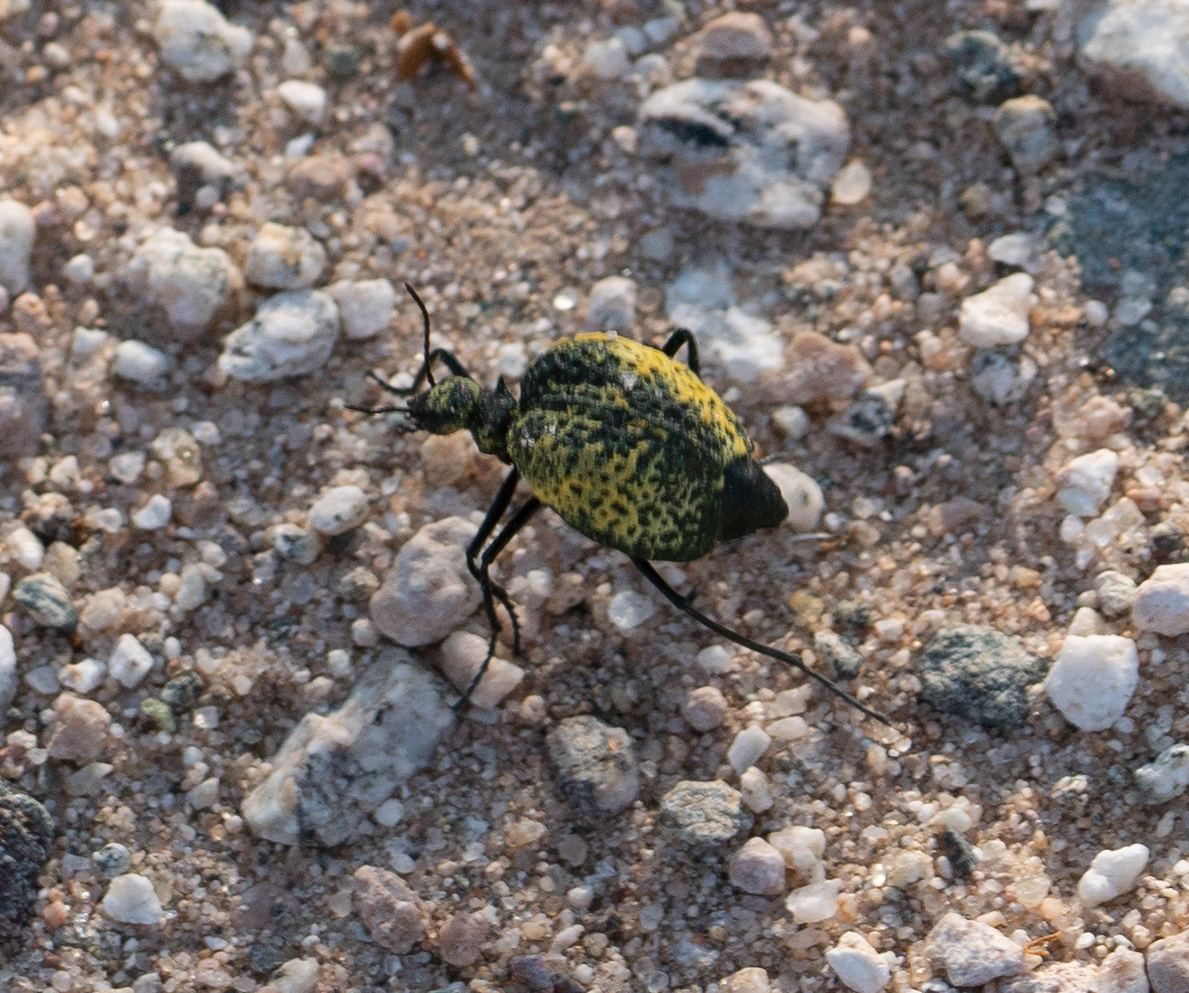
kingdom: Animalia
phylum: Arthropoda
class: Insecta
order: Coleoptera
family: Meloidae
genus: Cysteodemus
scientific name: Cysteodemus armatus
